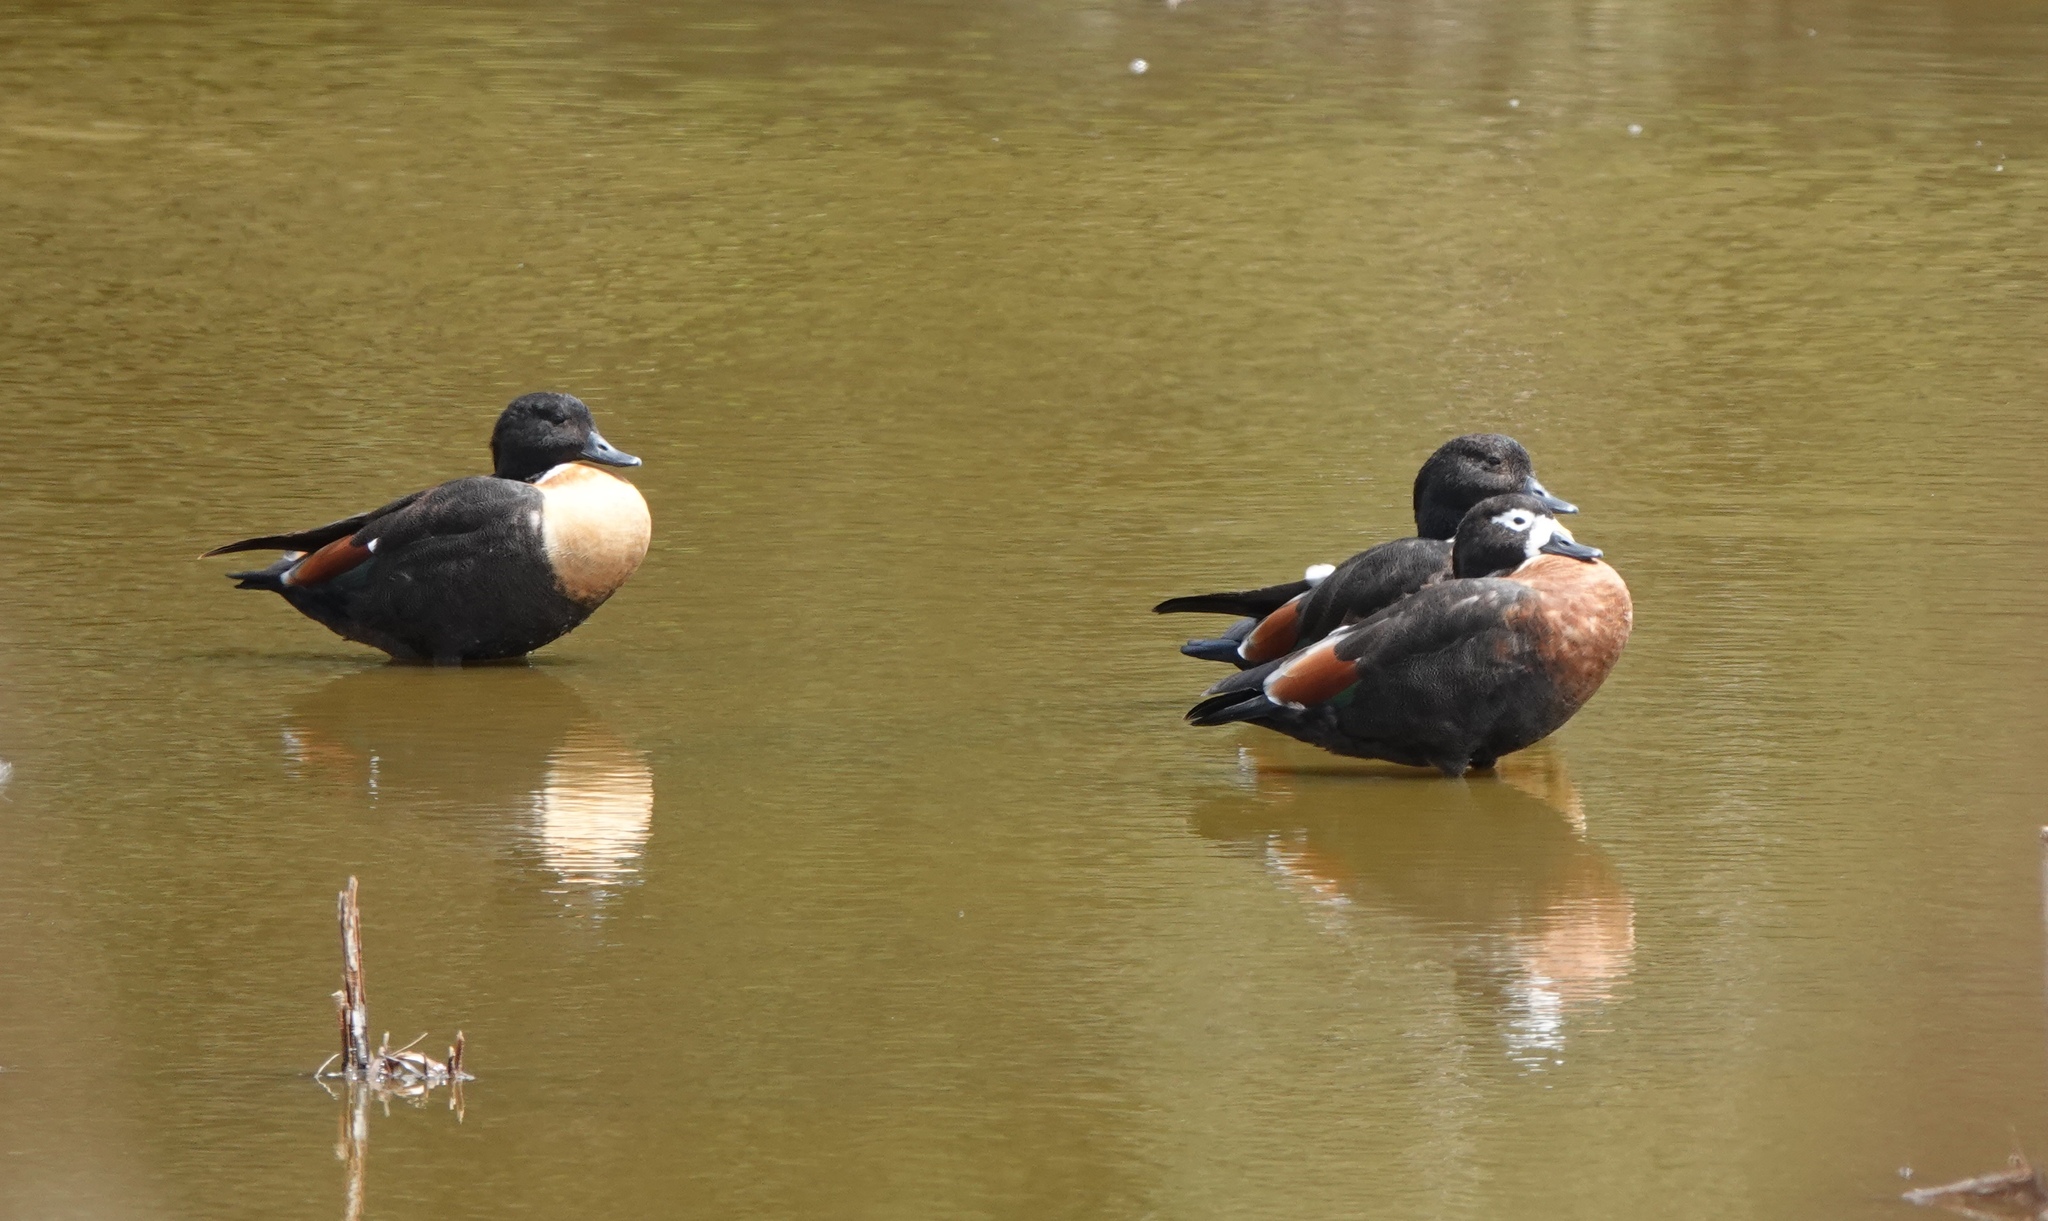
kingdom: Animalia
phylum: Chordata
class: Aves
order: Anseriformes
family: Anatidae
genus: Tadorna
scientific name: Tadorna tadornoides
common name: Australian shelduck
